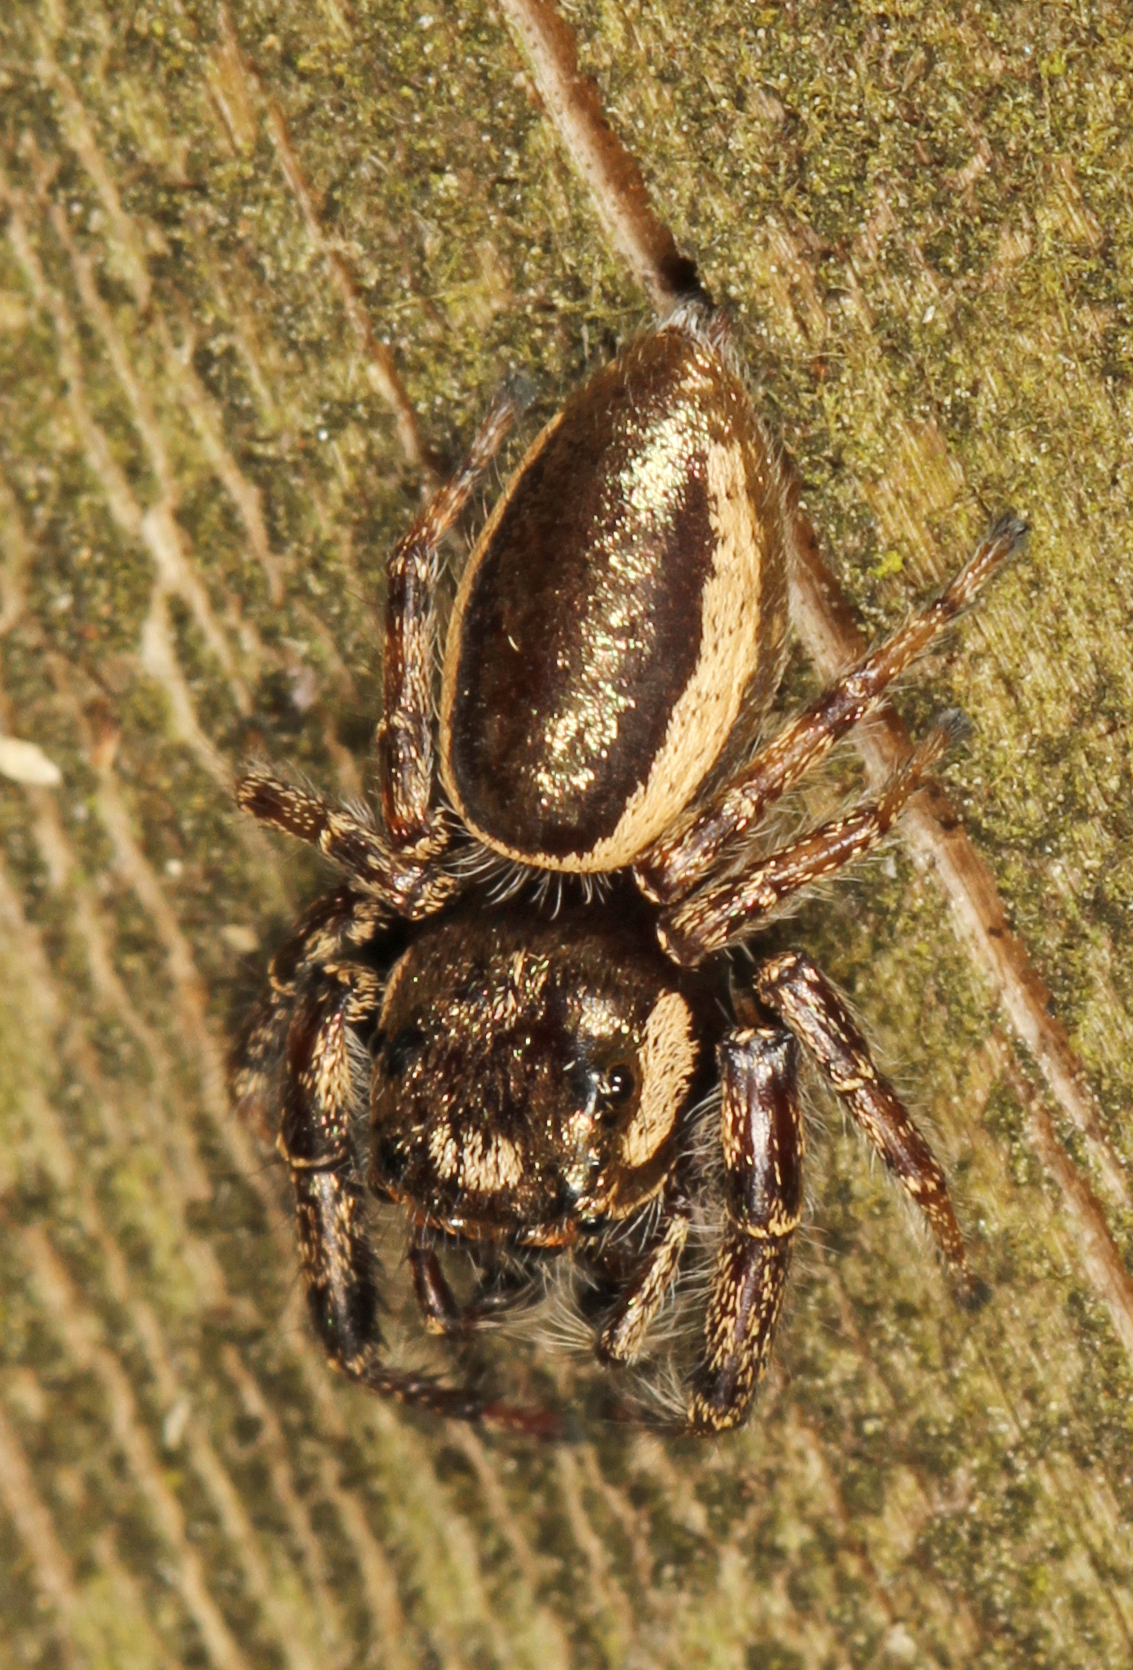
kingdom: Animalia
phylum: Arthropoda
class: Arachnida
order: Araneae
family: Salticidae
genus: Eris
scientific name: Eris militaris
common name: Bronze jumper
